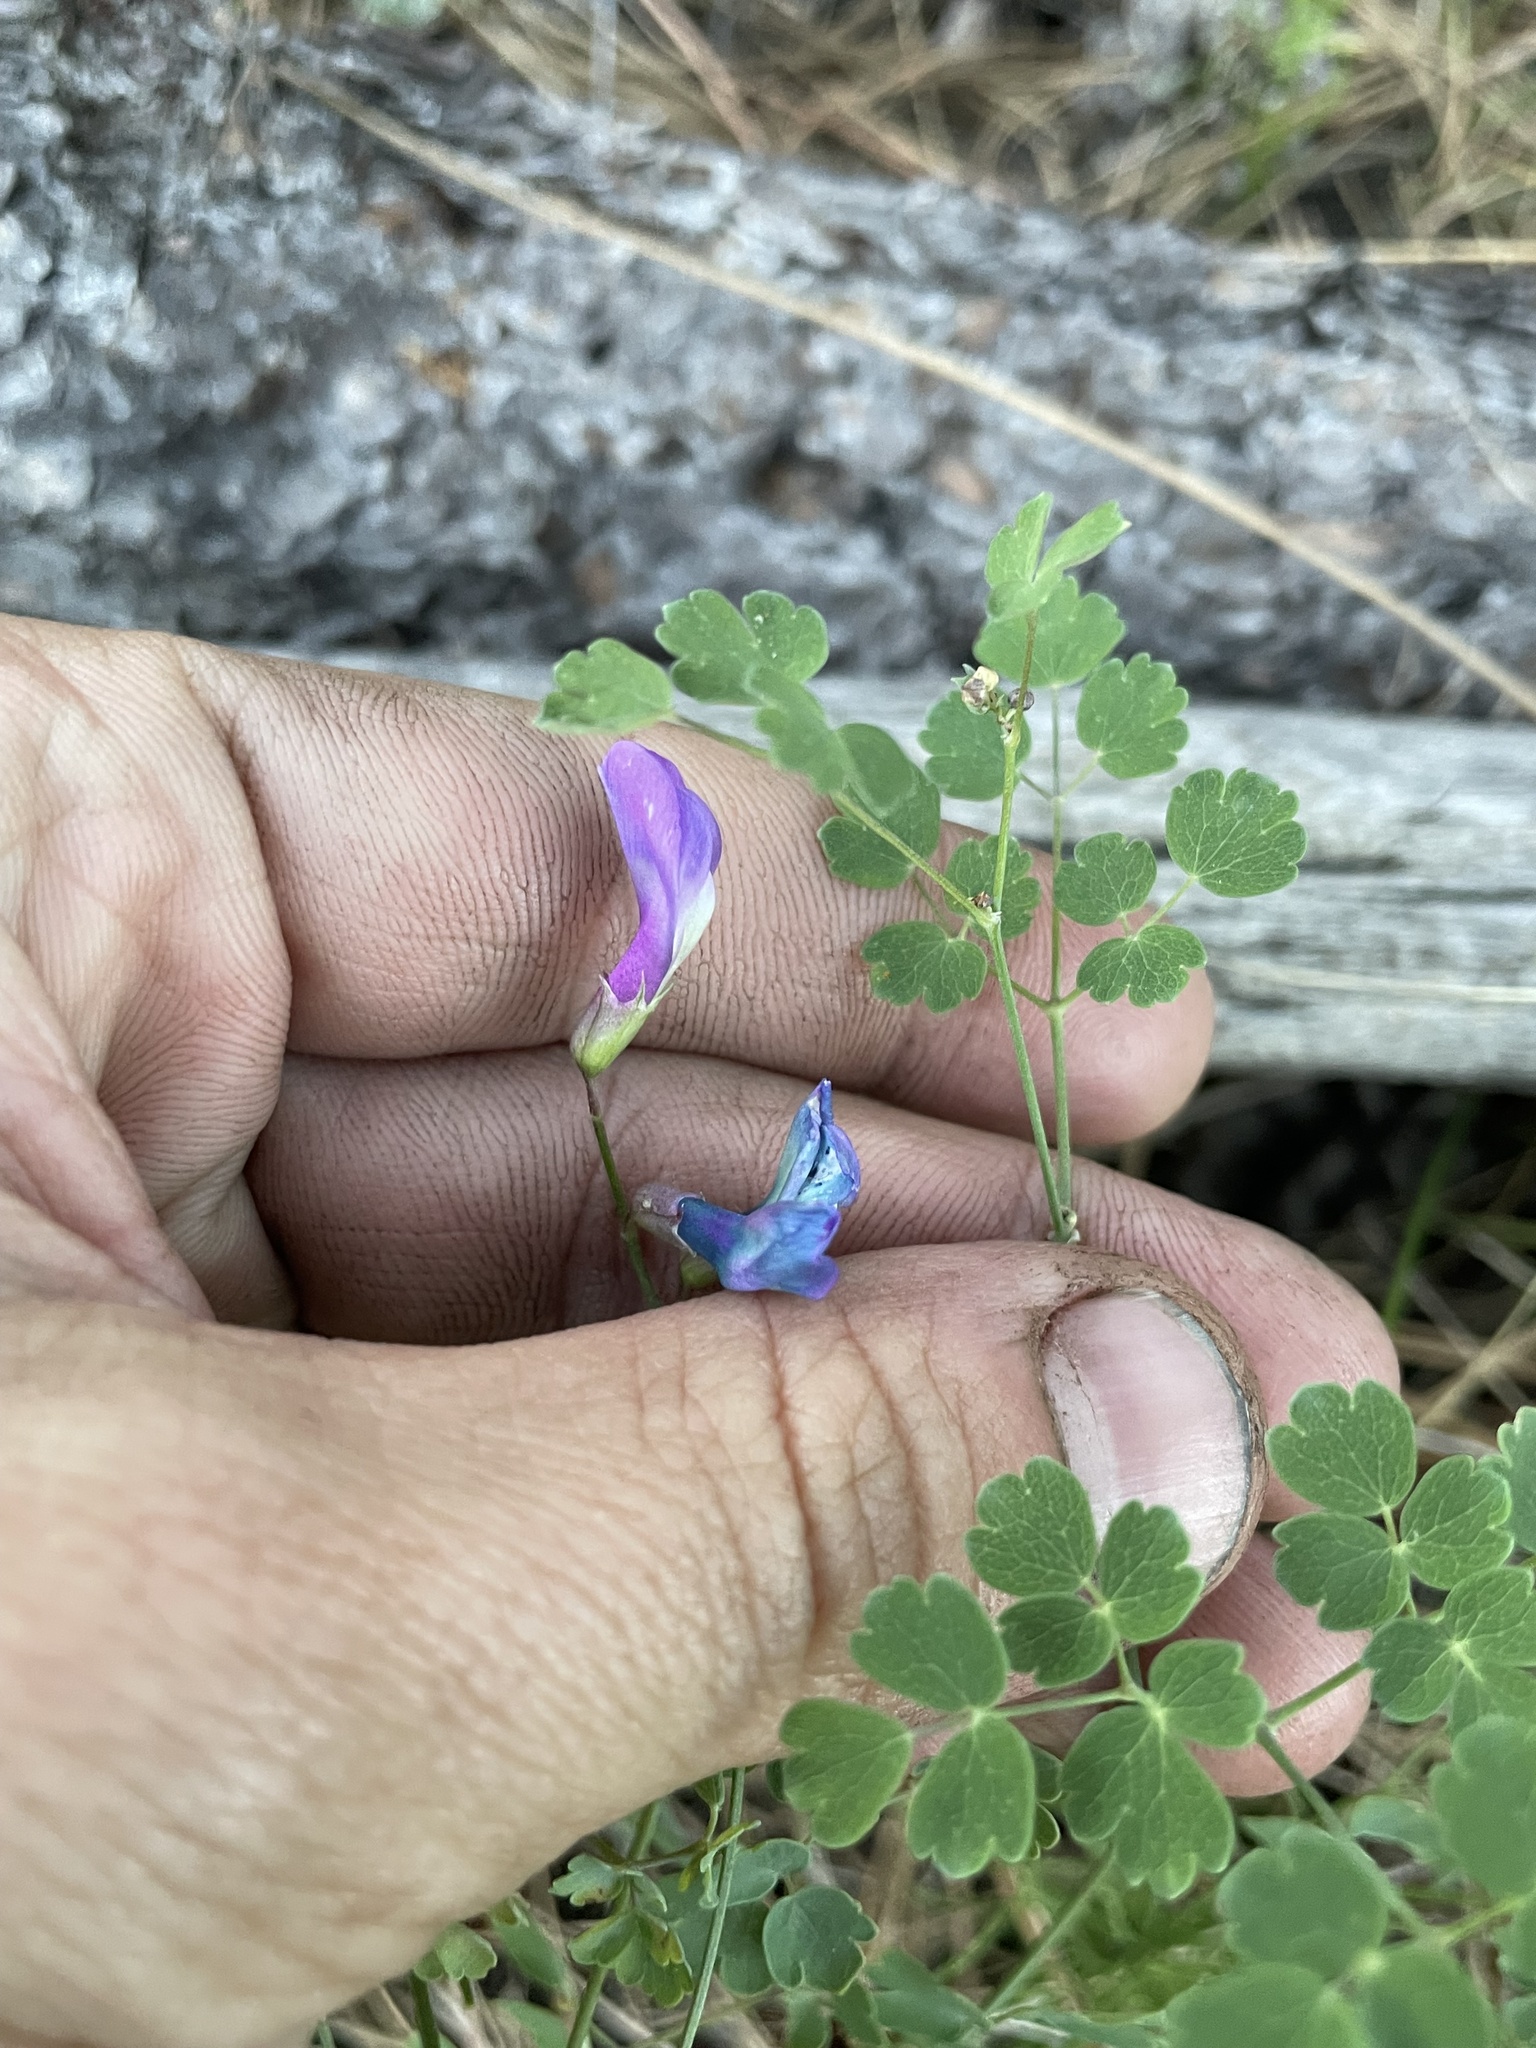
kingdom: Plantae
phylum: Tracheophyta
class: Magnoliopsida
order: Fabales
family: Fabaceae
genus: Vicia
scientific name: Vicia americana
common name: American vetch
